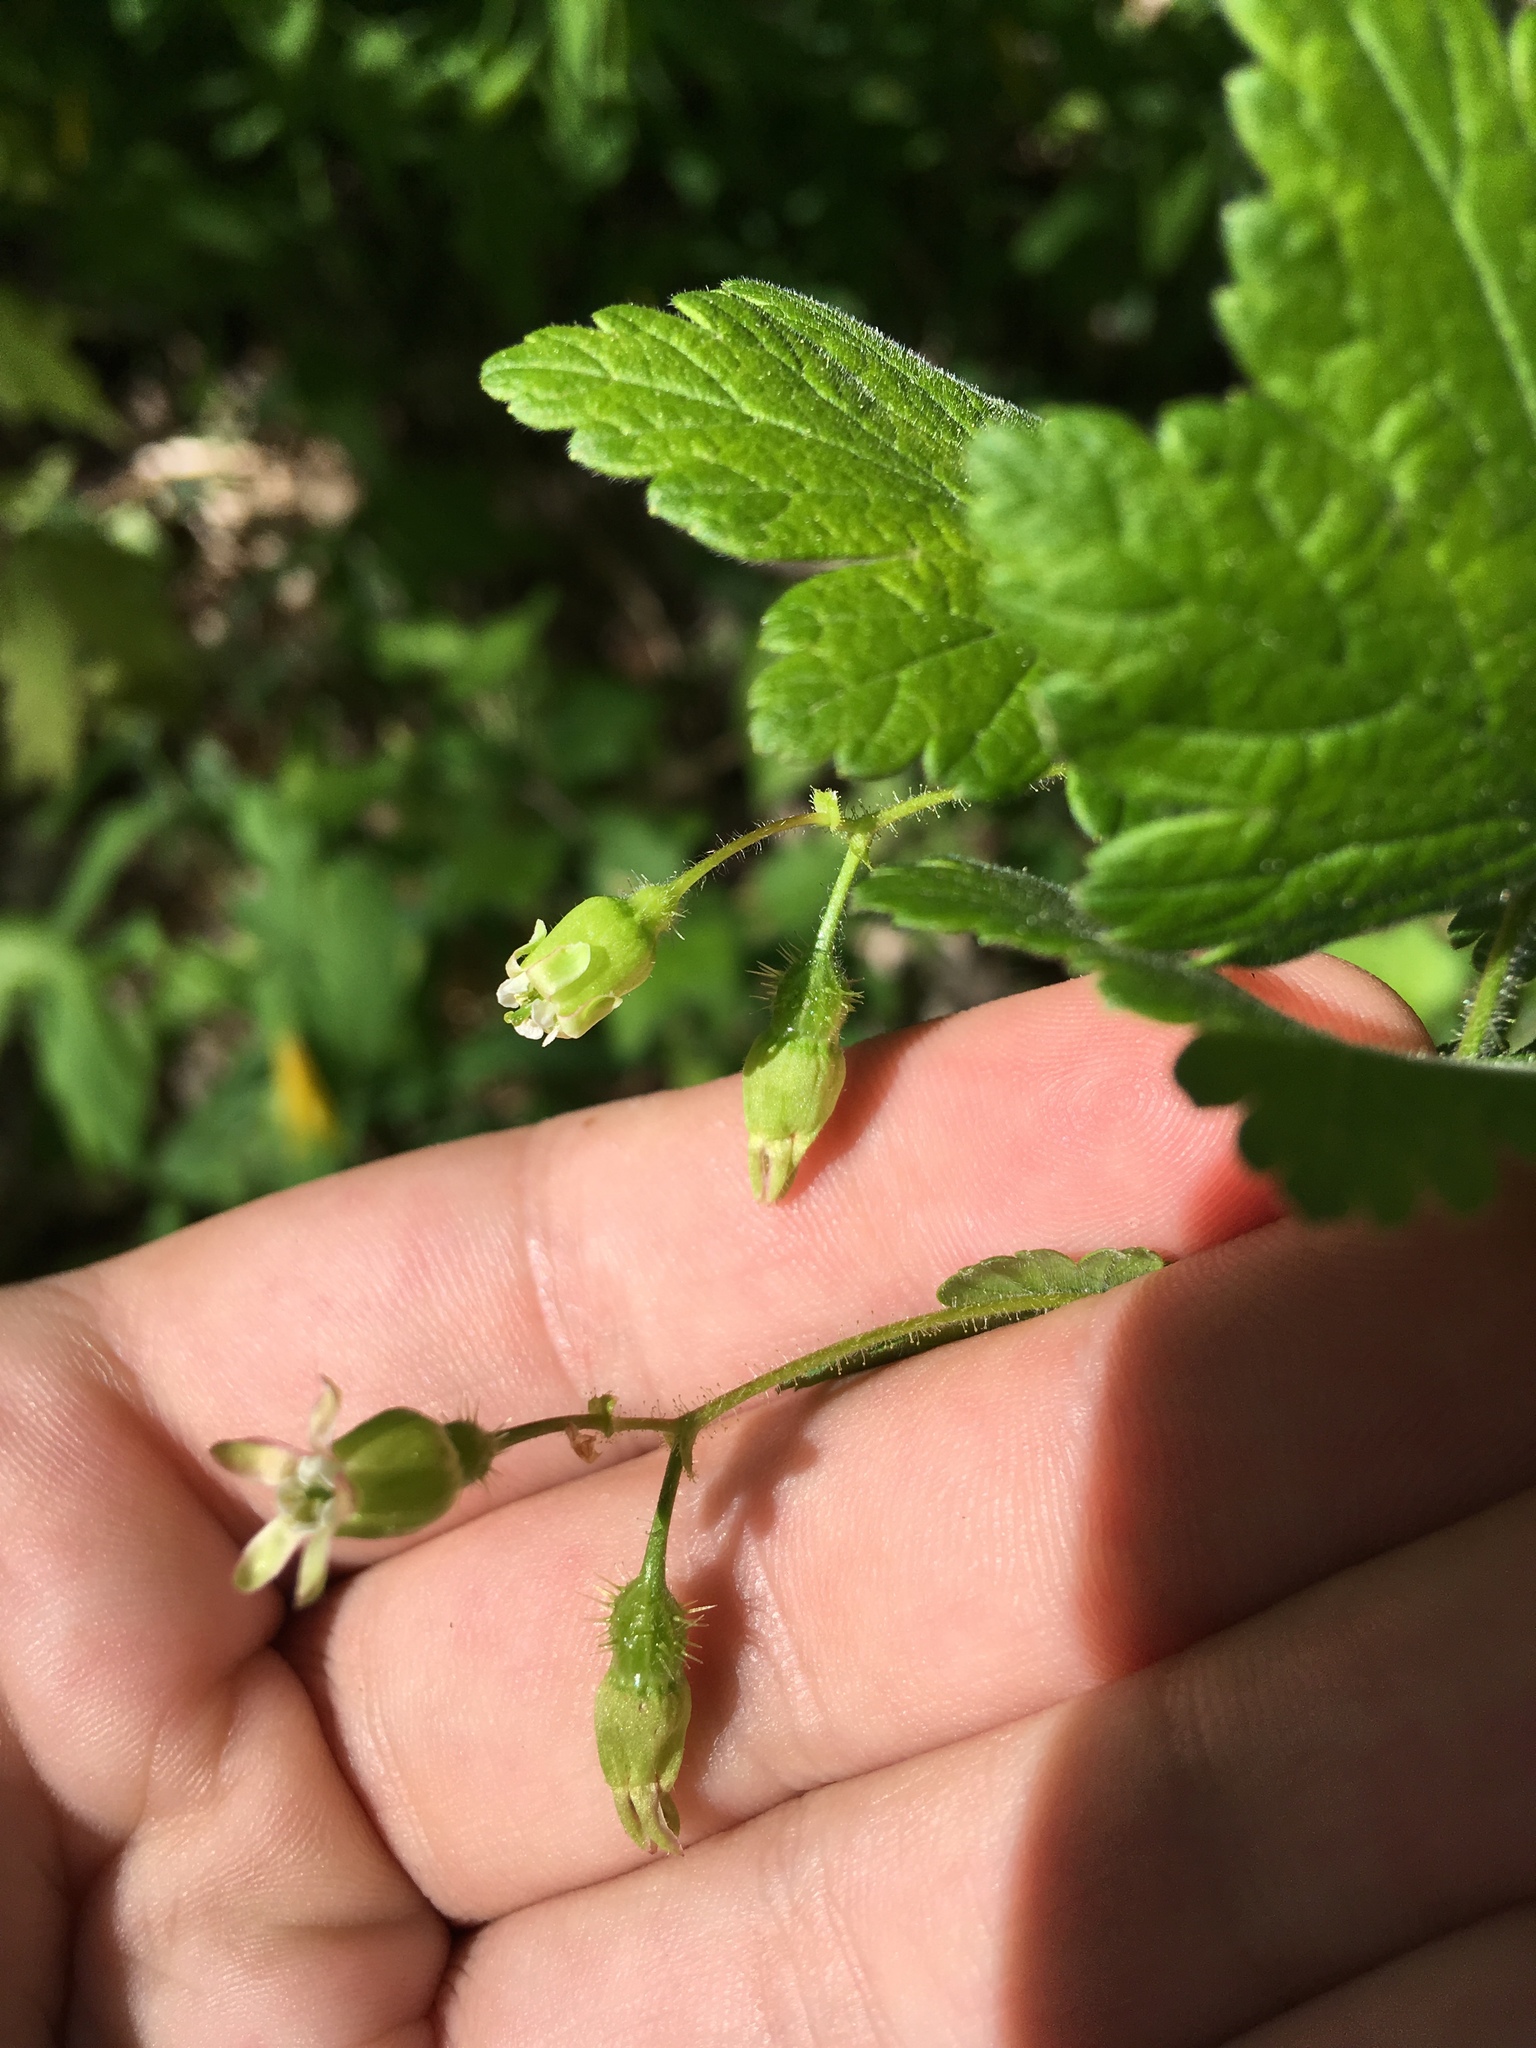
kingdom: Plantae
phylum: Tracheophyta
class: Magnoliopsida
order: Saxifragales
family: Grossulariaceae
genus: Ribes
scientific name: Ribes cynosbati
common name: American gooseberry
